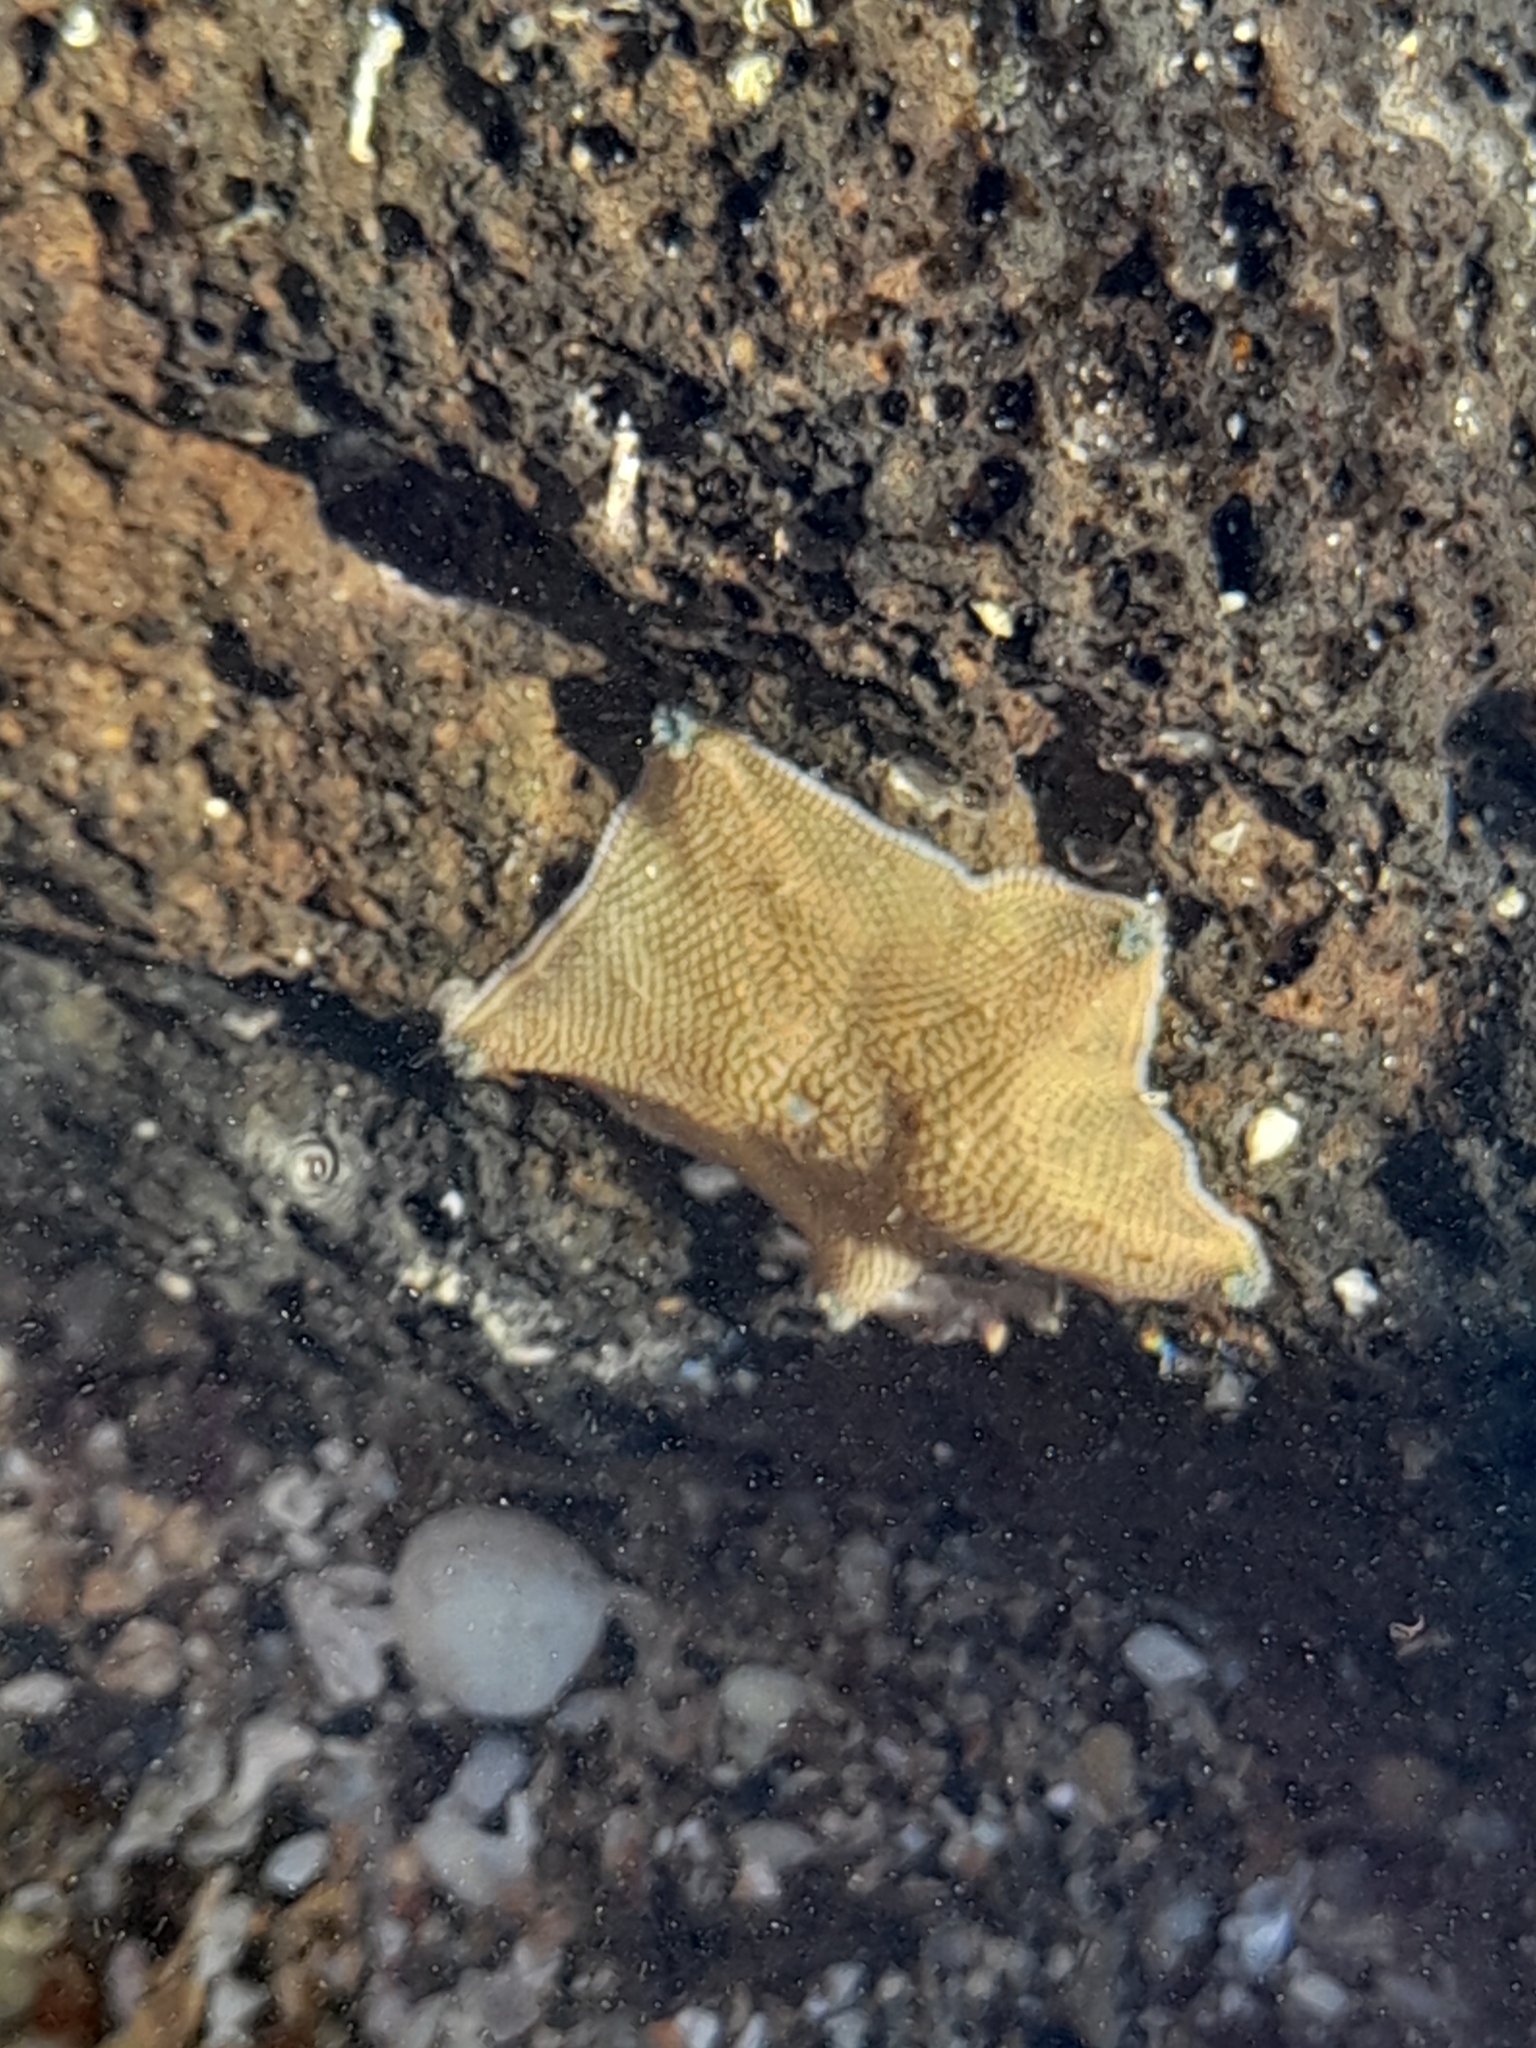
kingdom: Animalia
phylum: Echinodermata
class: Asteroidea
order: Valvatida
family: Asterinidae
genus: Patiriella
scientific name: Patiriella regularis
